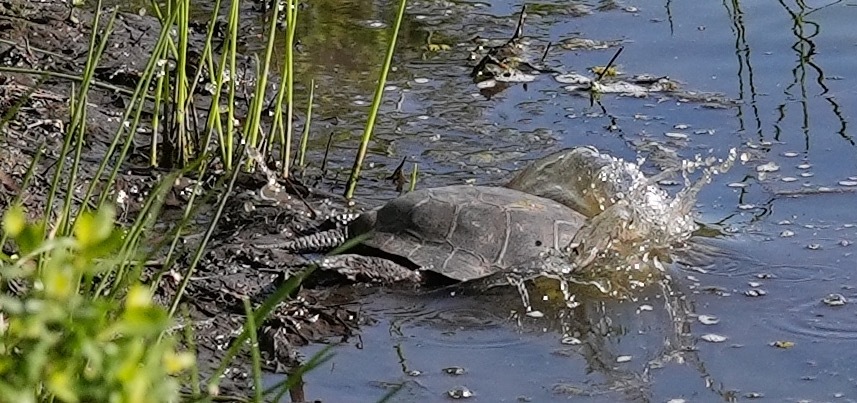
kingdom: Animalia
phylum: Chordata
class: Testudines
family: Emydidae
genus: Actinemys
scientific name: Actinemys marmorata
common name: Western pond turtle
